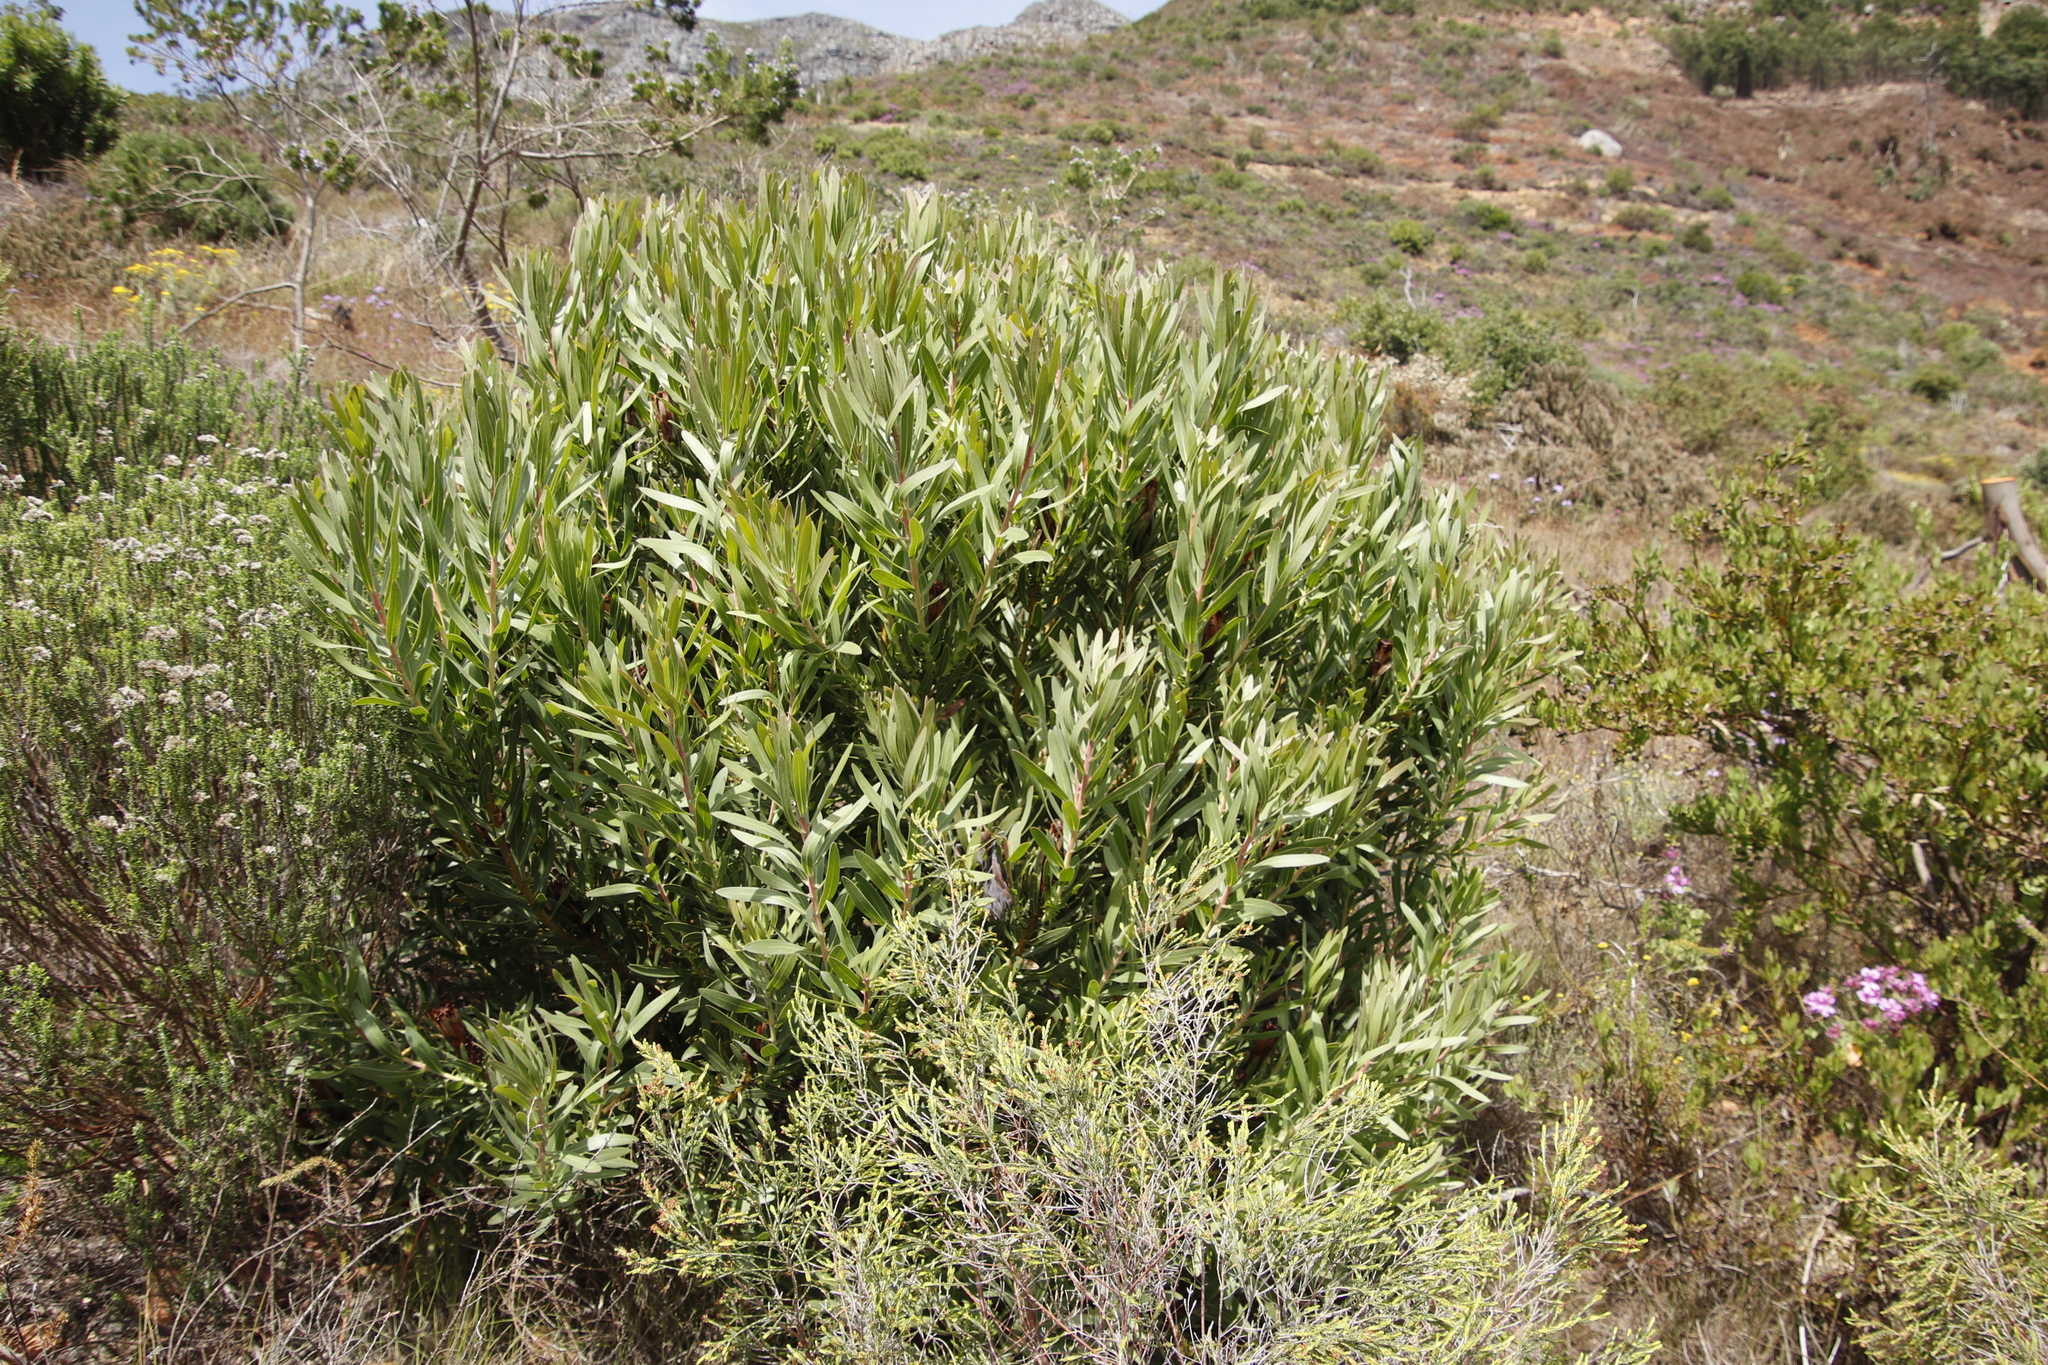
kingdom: Plantae
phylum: Tracheophyta
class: Magnoliopsida
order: Proteales
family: Proteaceae
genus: Protea
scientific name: Protea lepidocarpodendron
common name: Black-bearded protea
